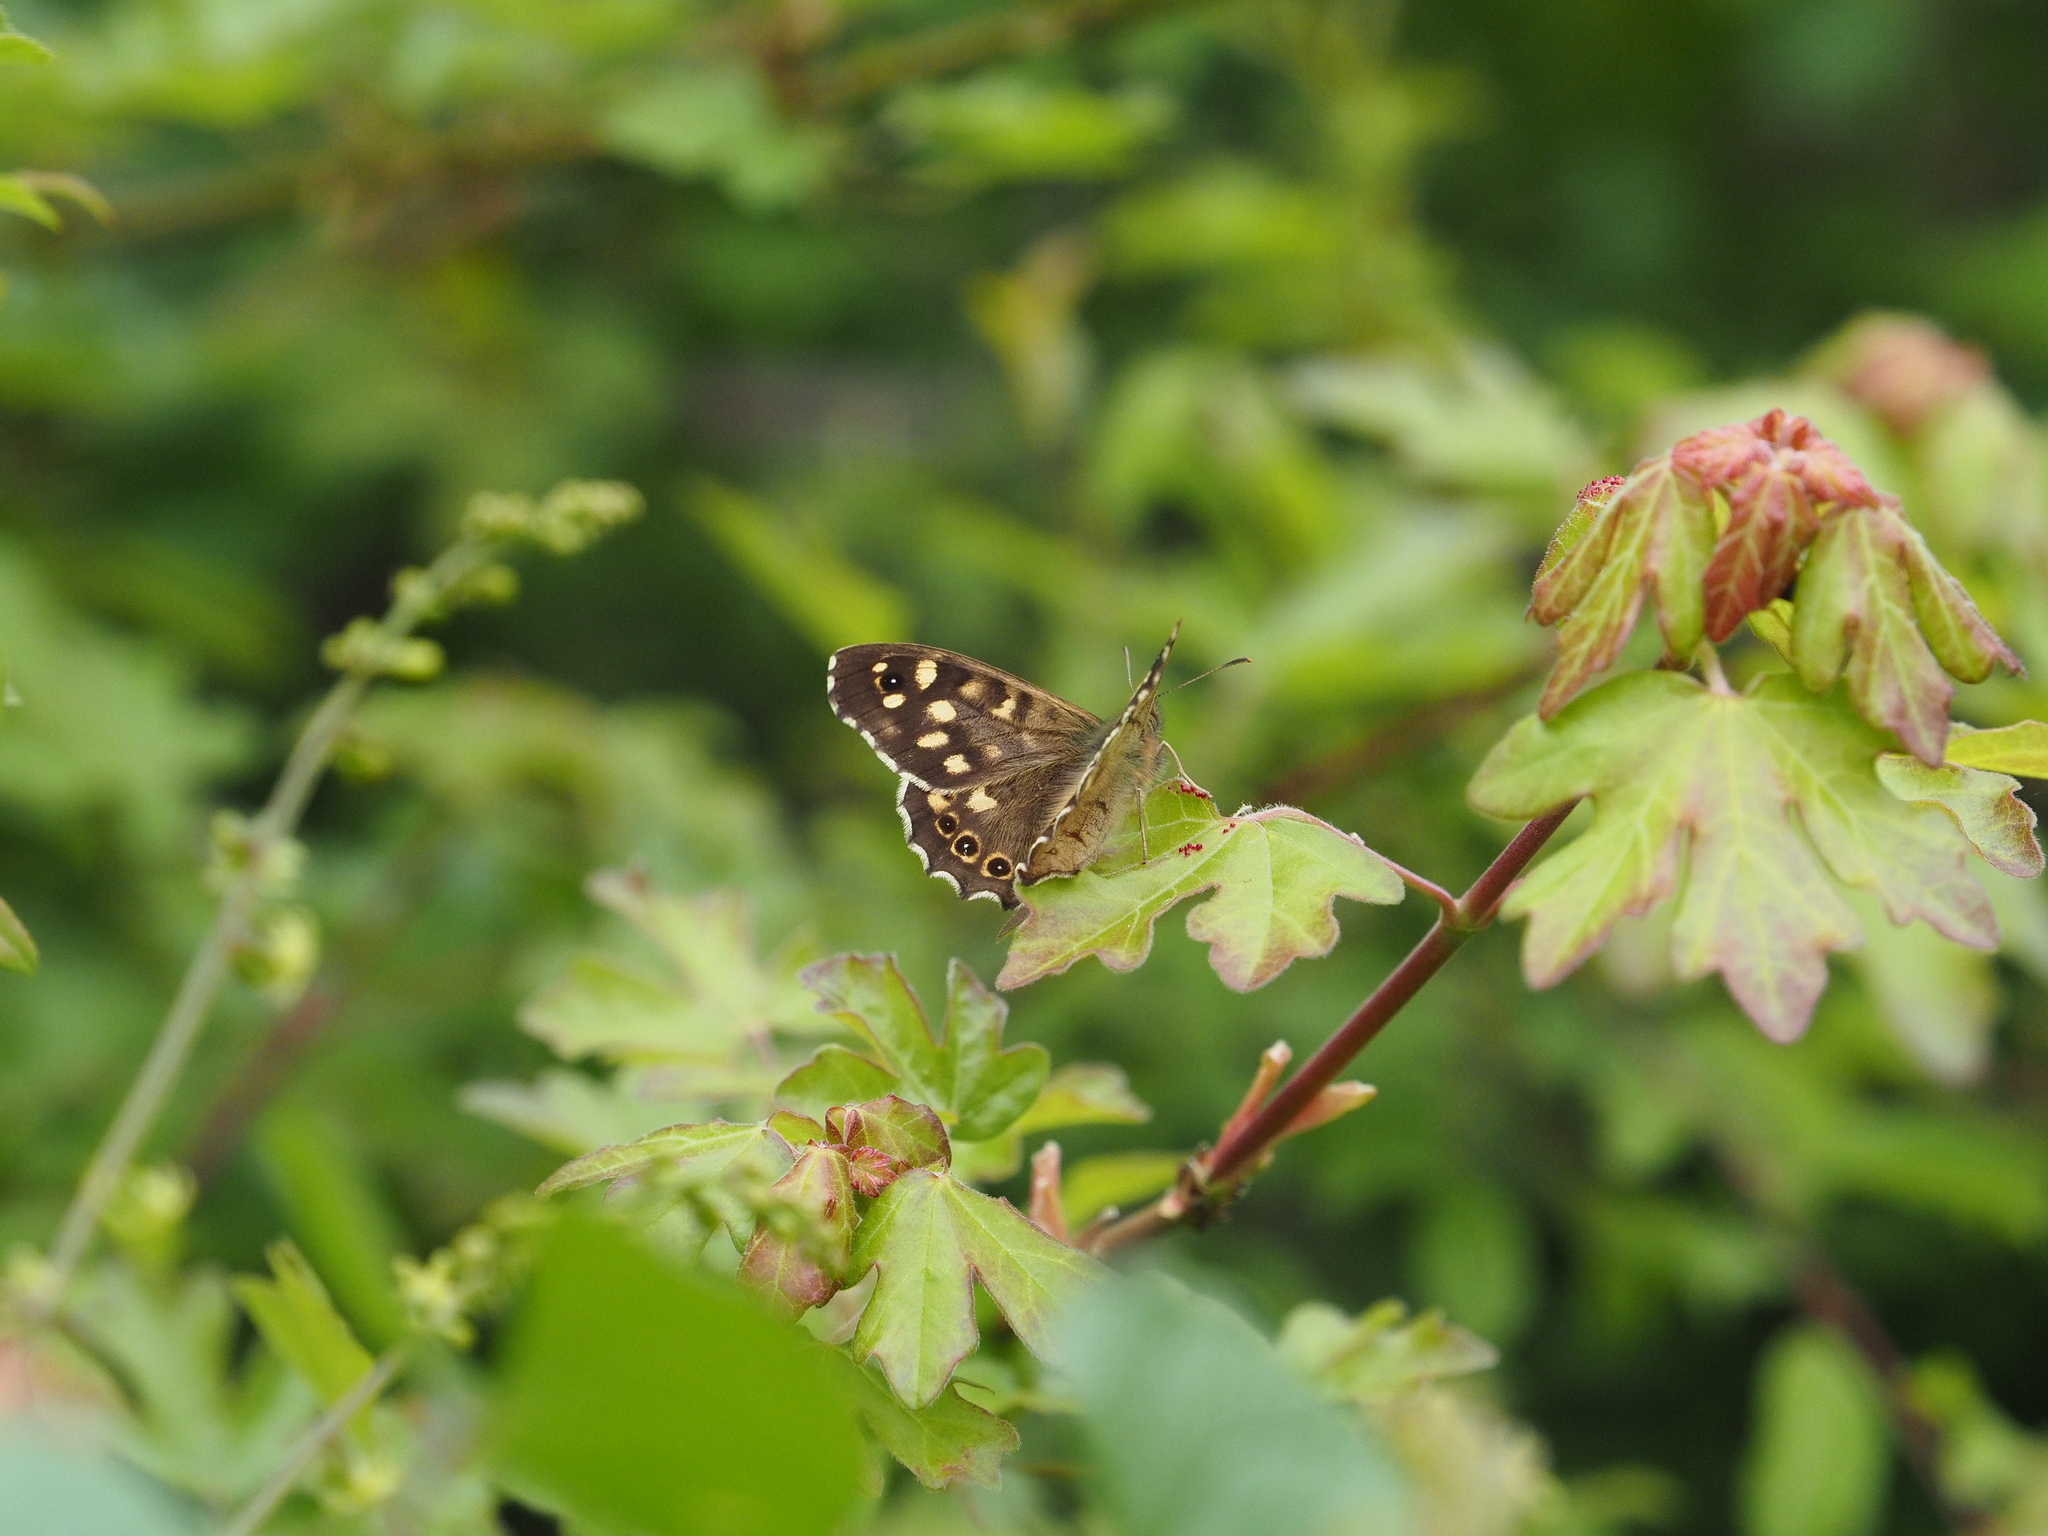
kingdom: Animalia
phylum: Arthropoda
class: Insecta
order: Lepidoptera
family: Nymphalidae
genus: Pararge
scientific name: Pararge aegeria
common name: Speckled wood
